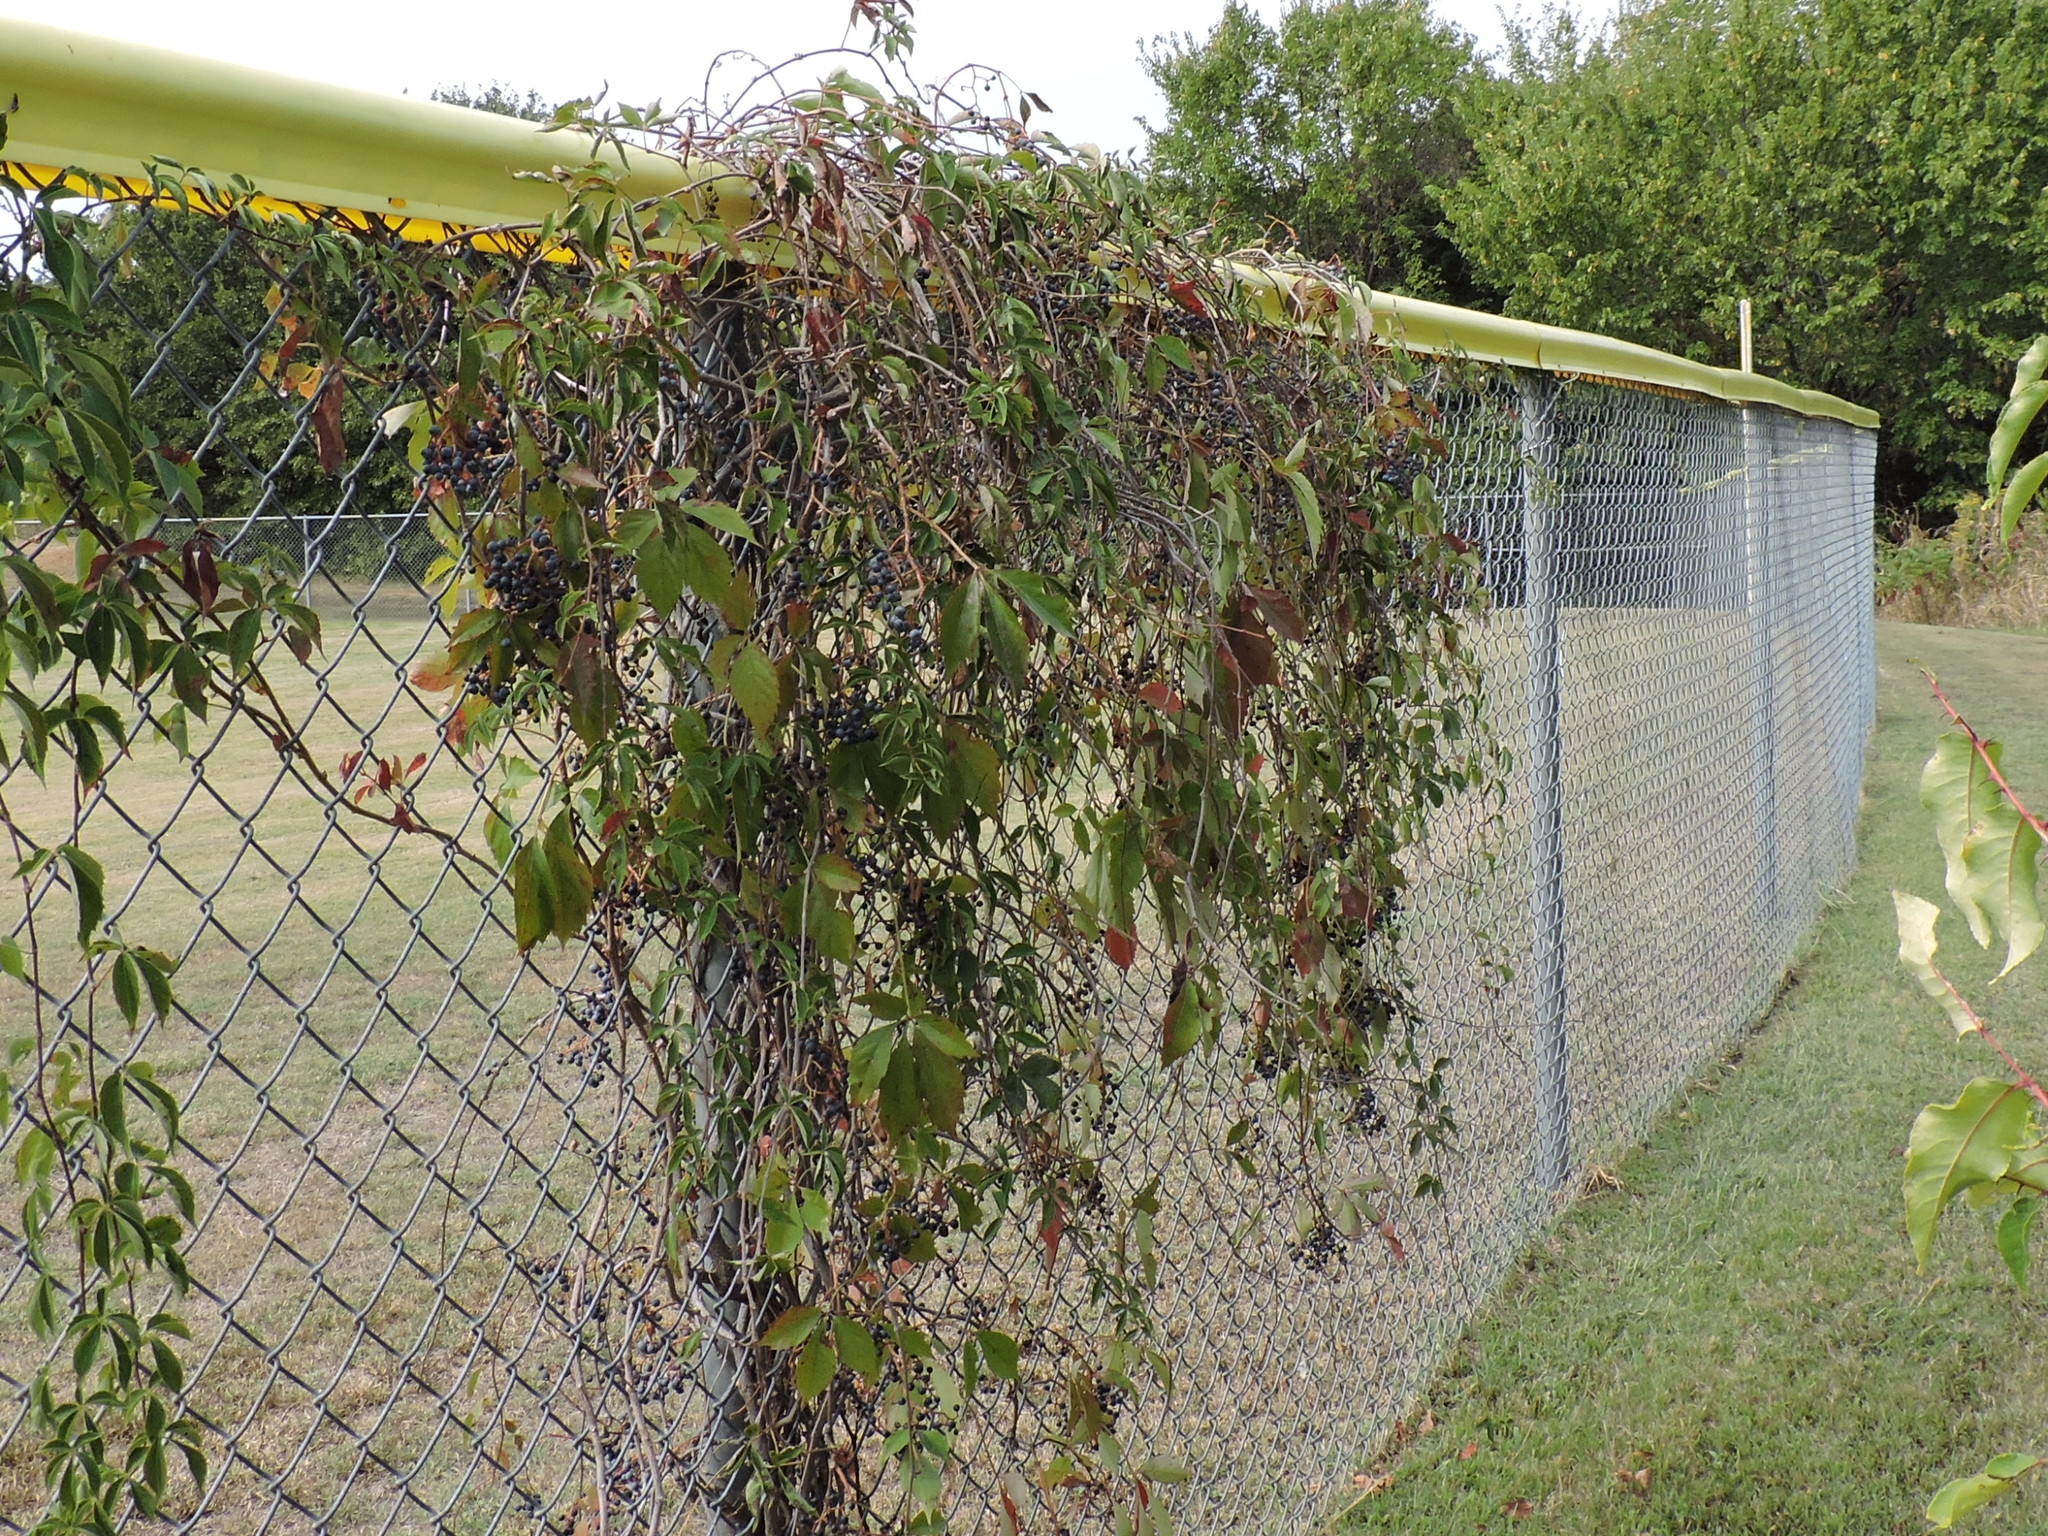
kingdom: Plantae
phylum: Tracheophyta
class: Magnoliopsida
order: Vitales
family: Vitaceae
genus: Parthenocissus
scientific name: Parthenocissus quinquefolia
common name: Virginia-creeper
